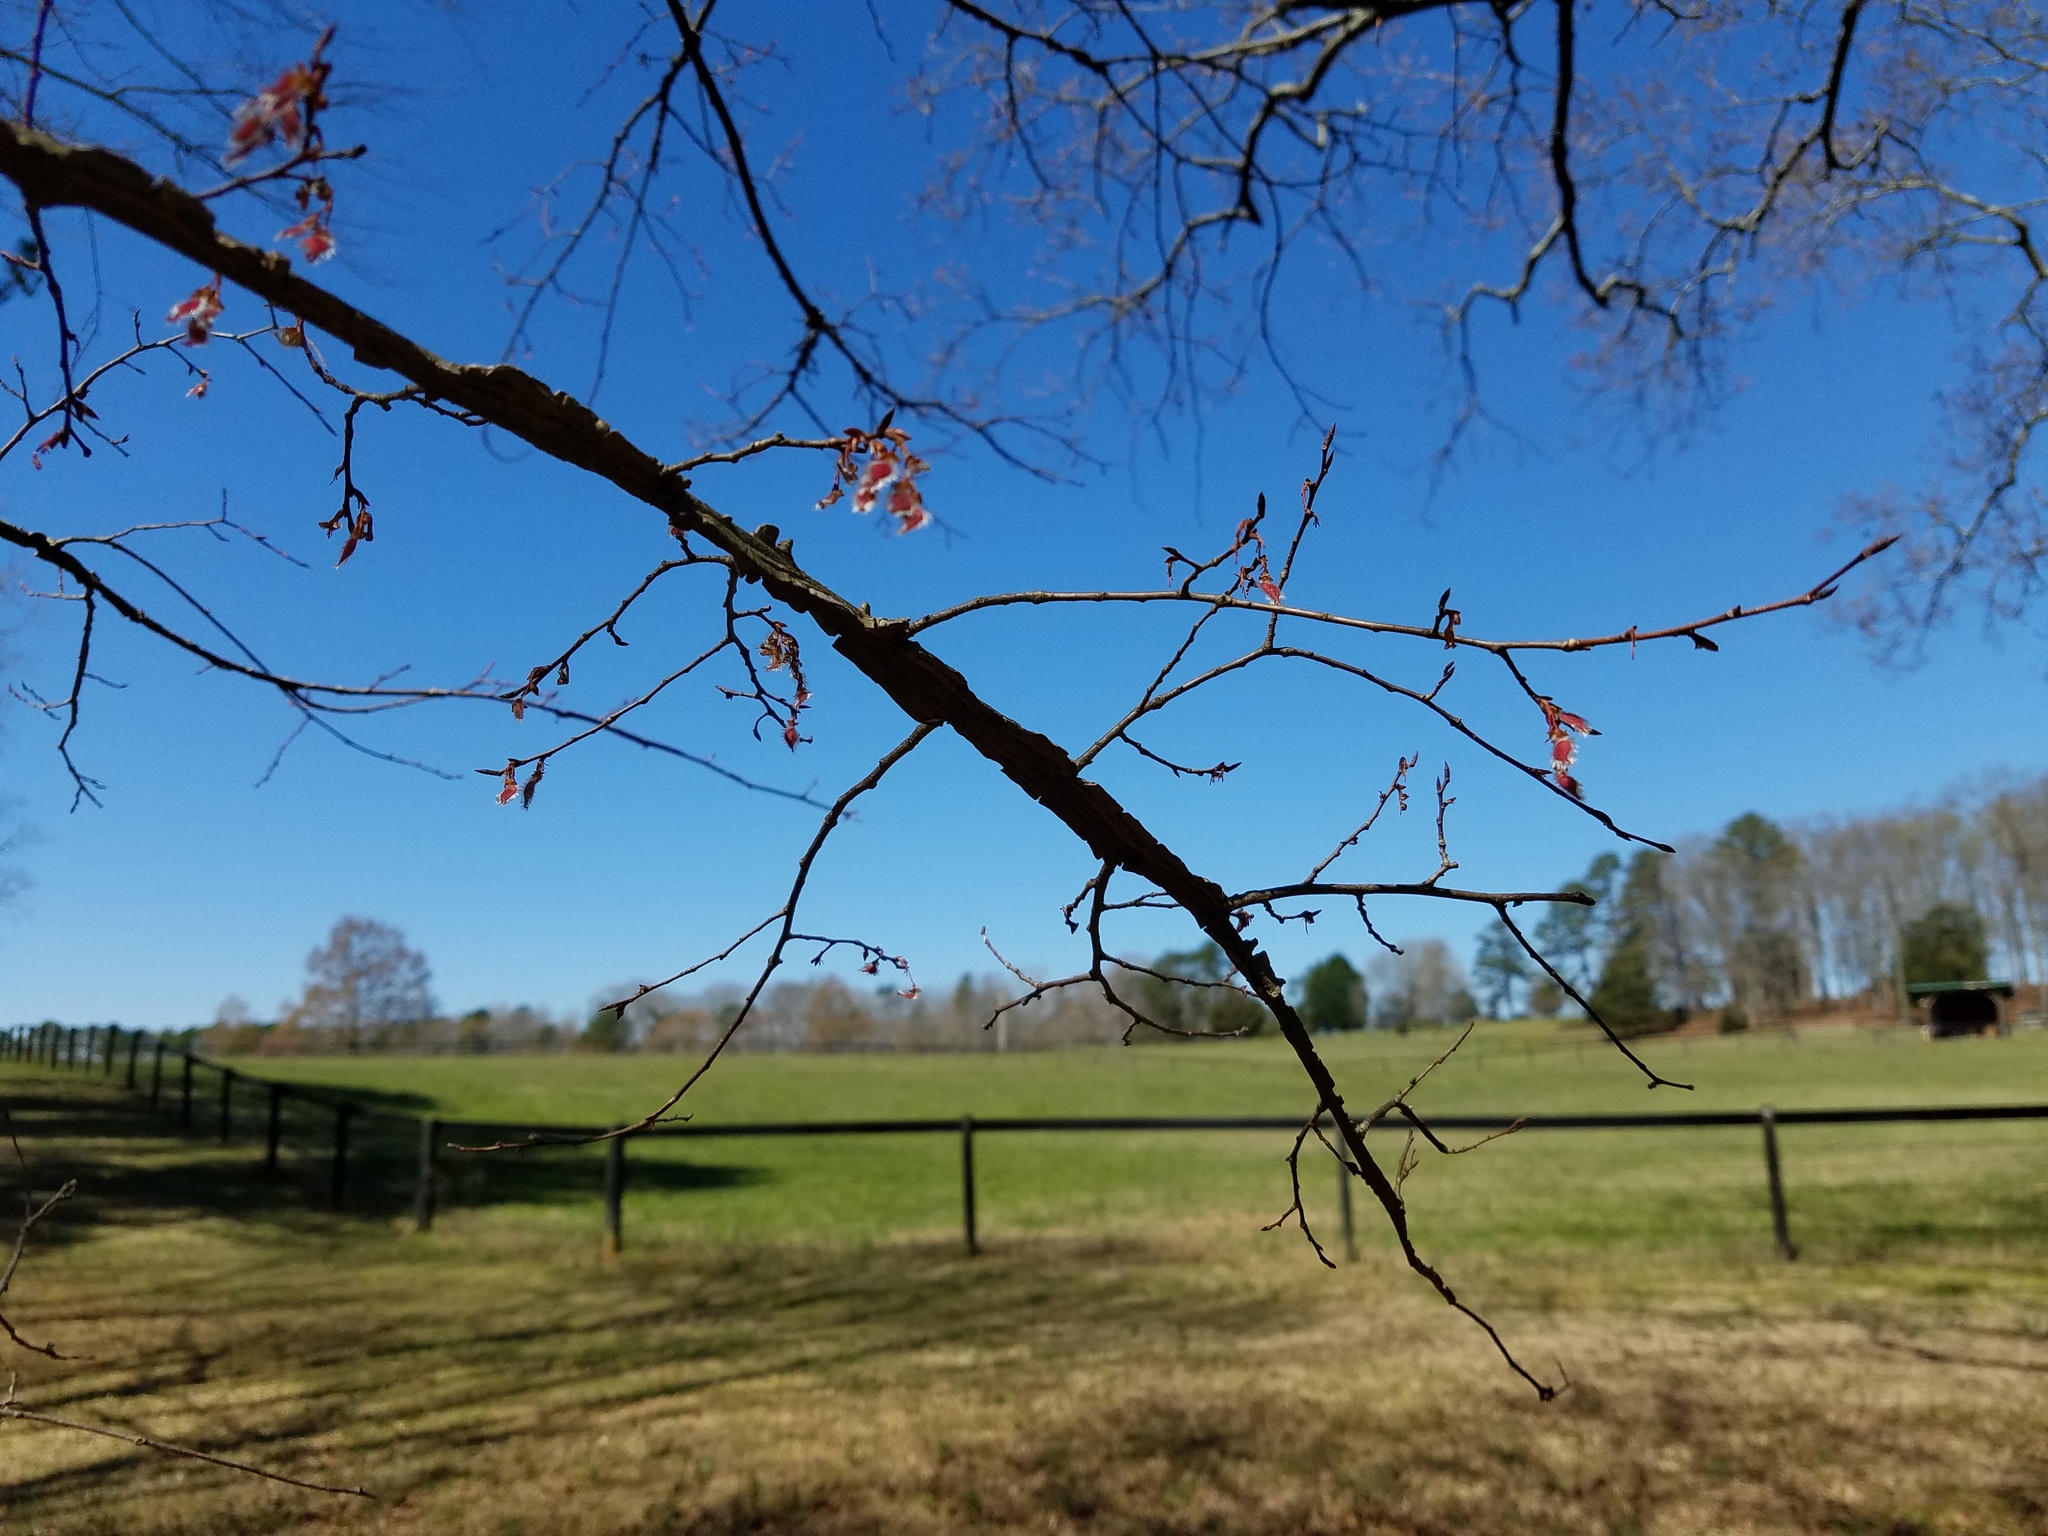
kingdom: Plantae
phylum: Tracheophyta
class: Magnoliopsida
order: Rosales
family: Ulmaceae
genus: Ulmus
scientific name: Ulmus alata
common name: Winged elm
